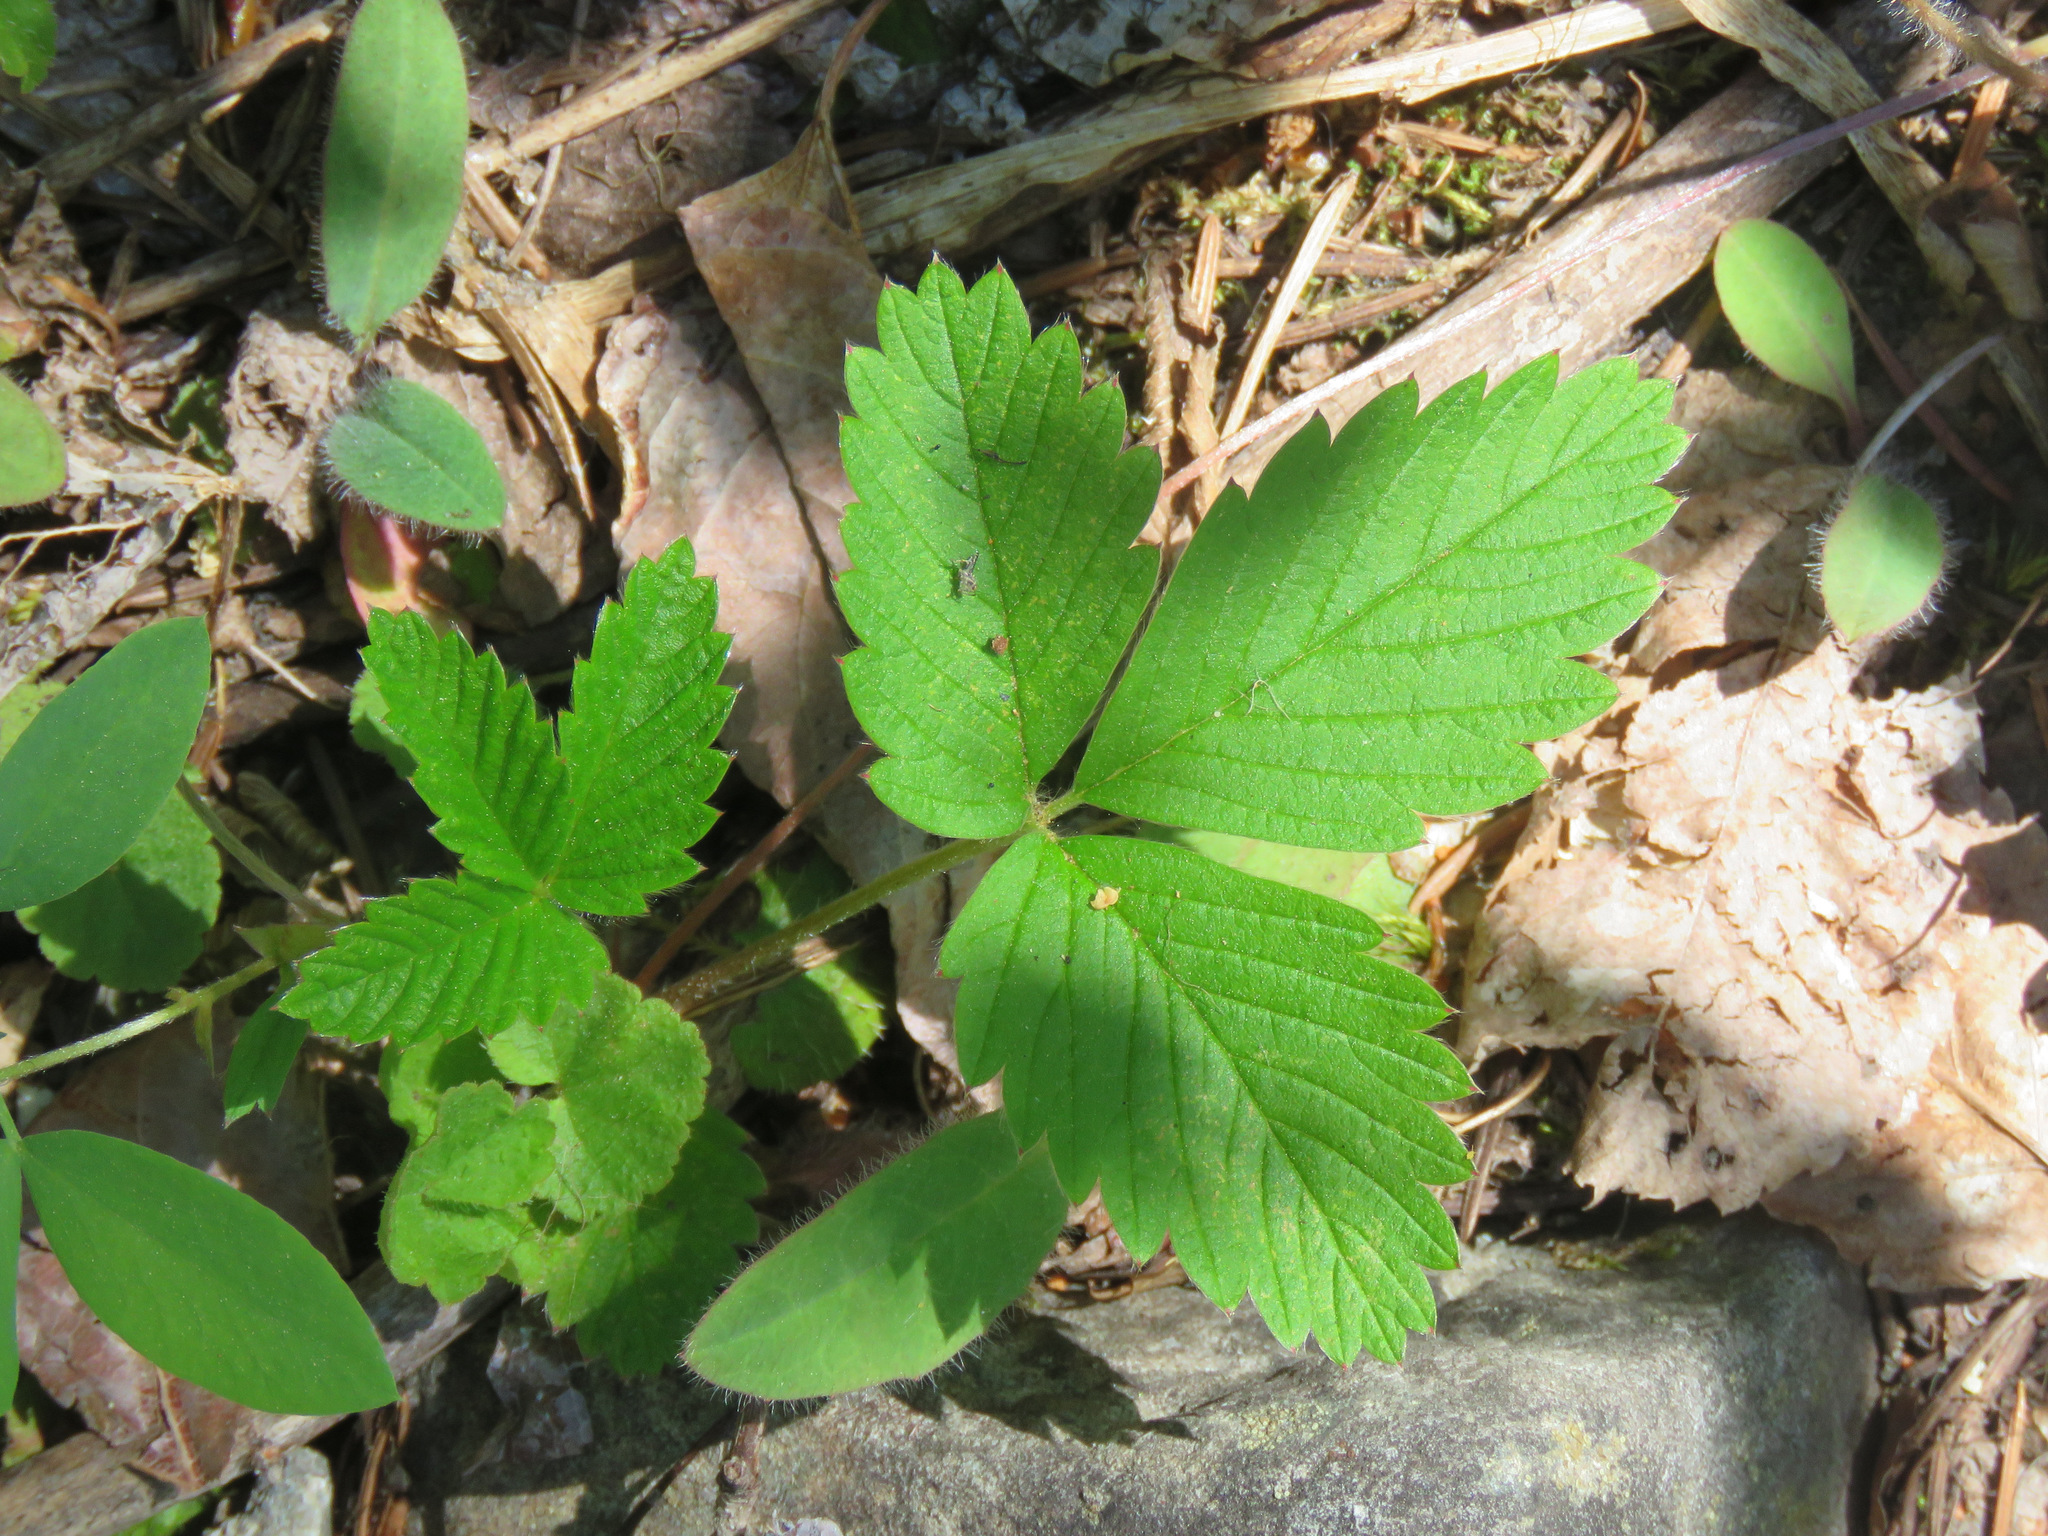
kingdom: Plantae
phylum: Tracheophyta
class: Magnoliopsida
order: Rosales
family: Rosaceae
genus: Fragaria
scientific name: Fragaria vesca
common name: Wild strawberry
